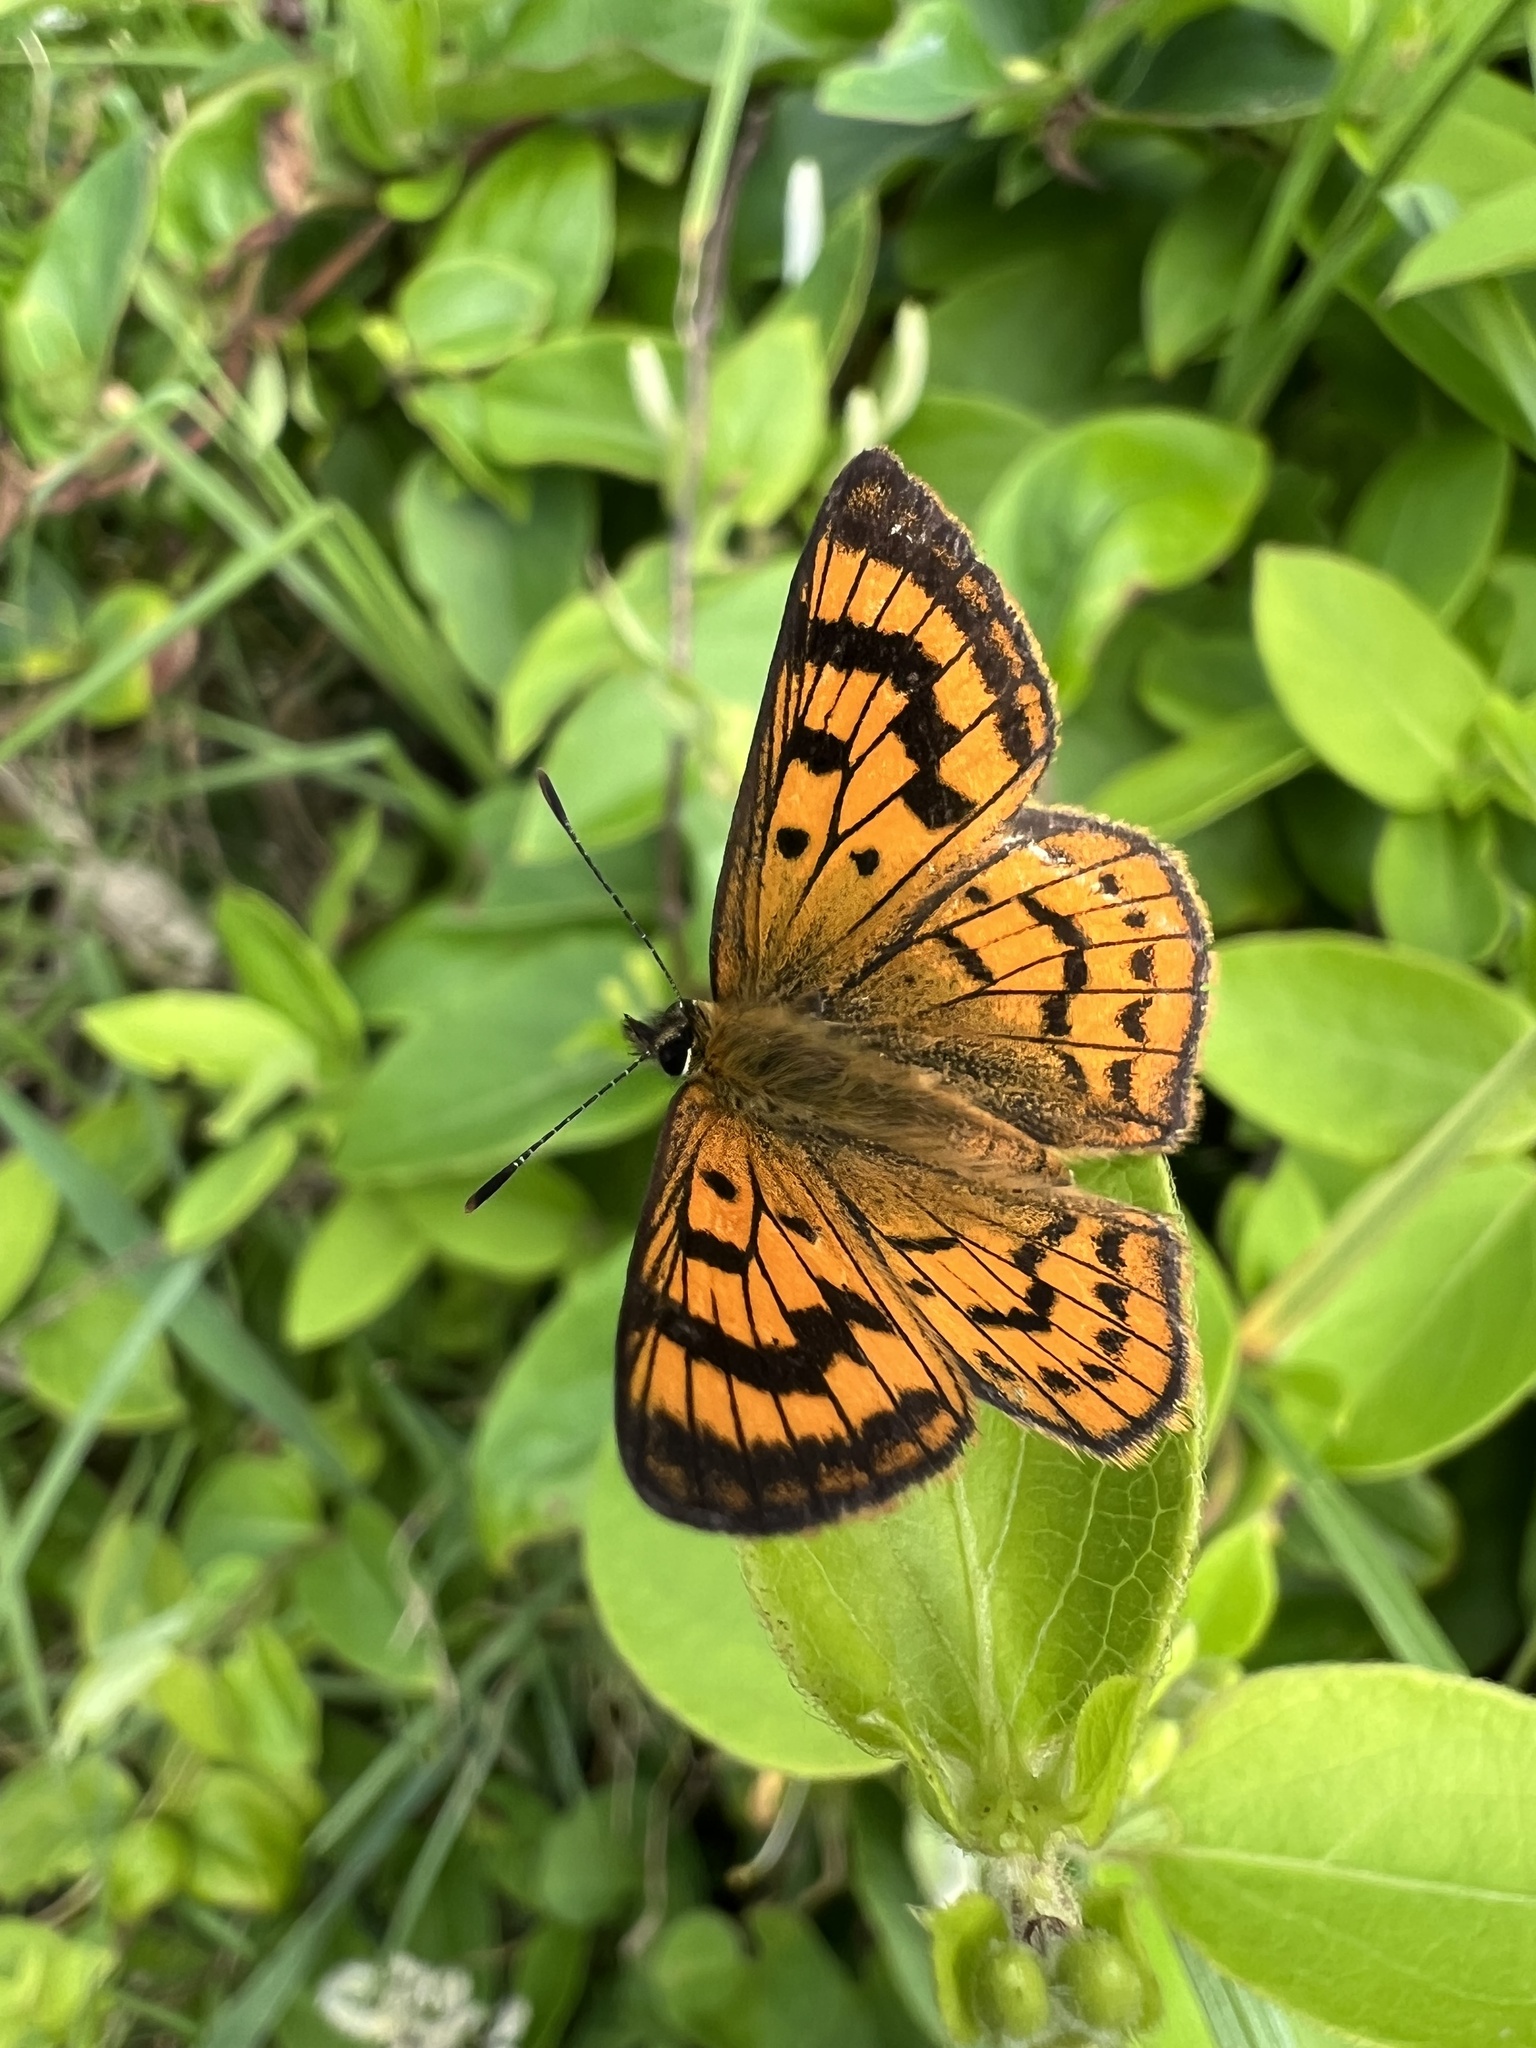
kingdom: Animalia
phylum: Arthropoda
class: Insecta
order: Lepidoptera
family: Lycaenidae
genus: Lycaena
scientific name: Lycaena salustius
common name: North island coastal copper
